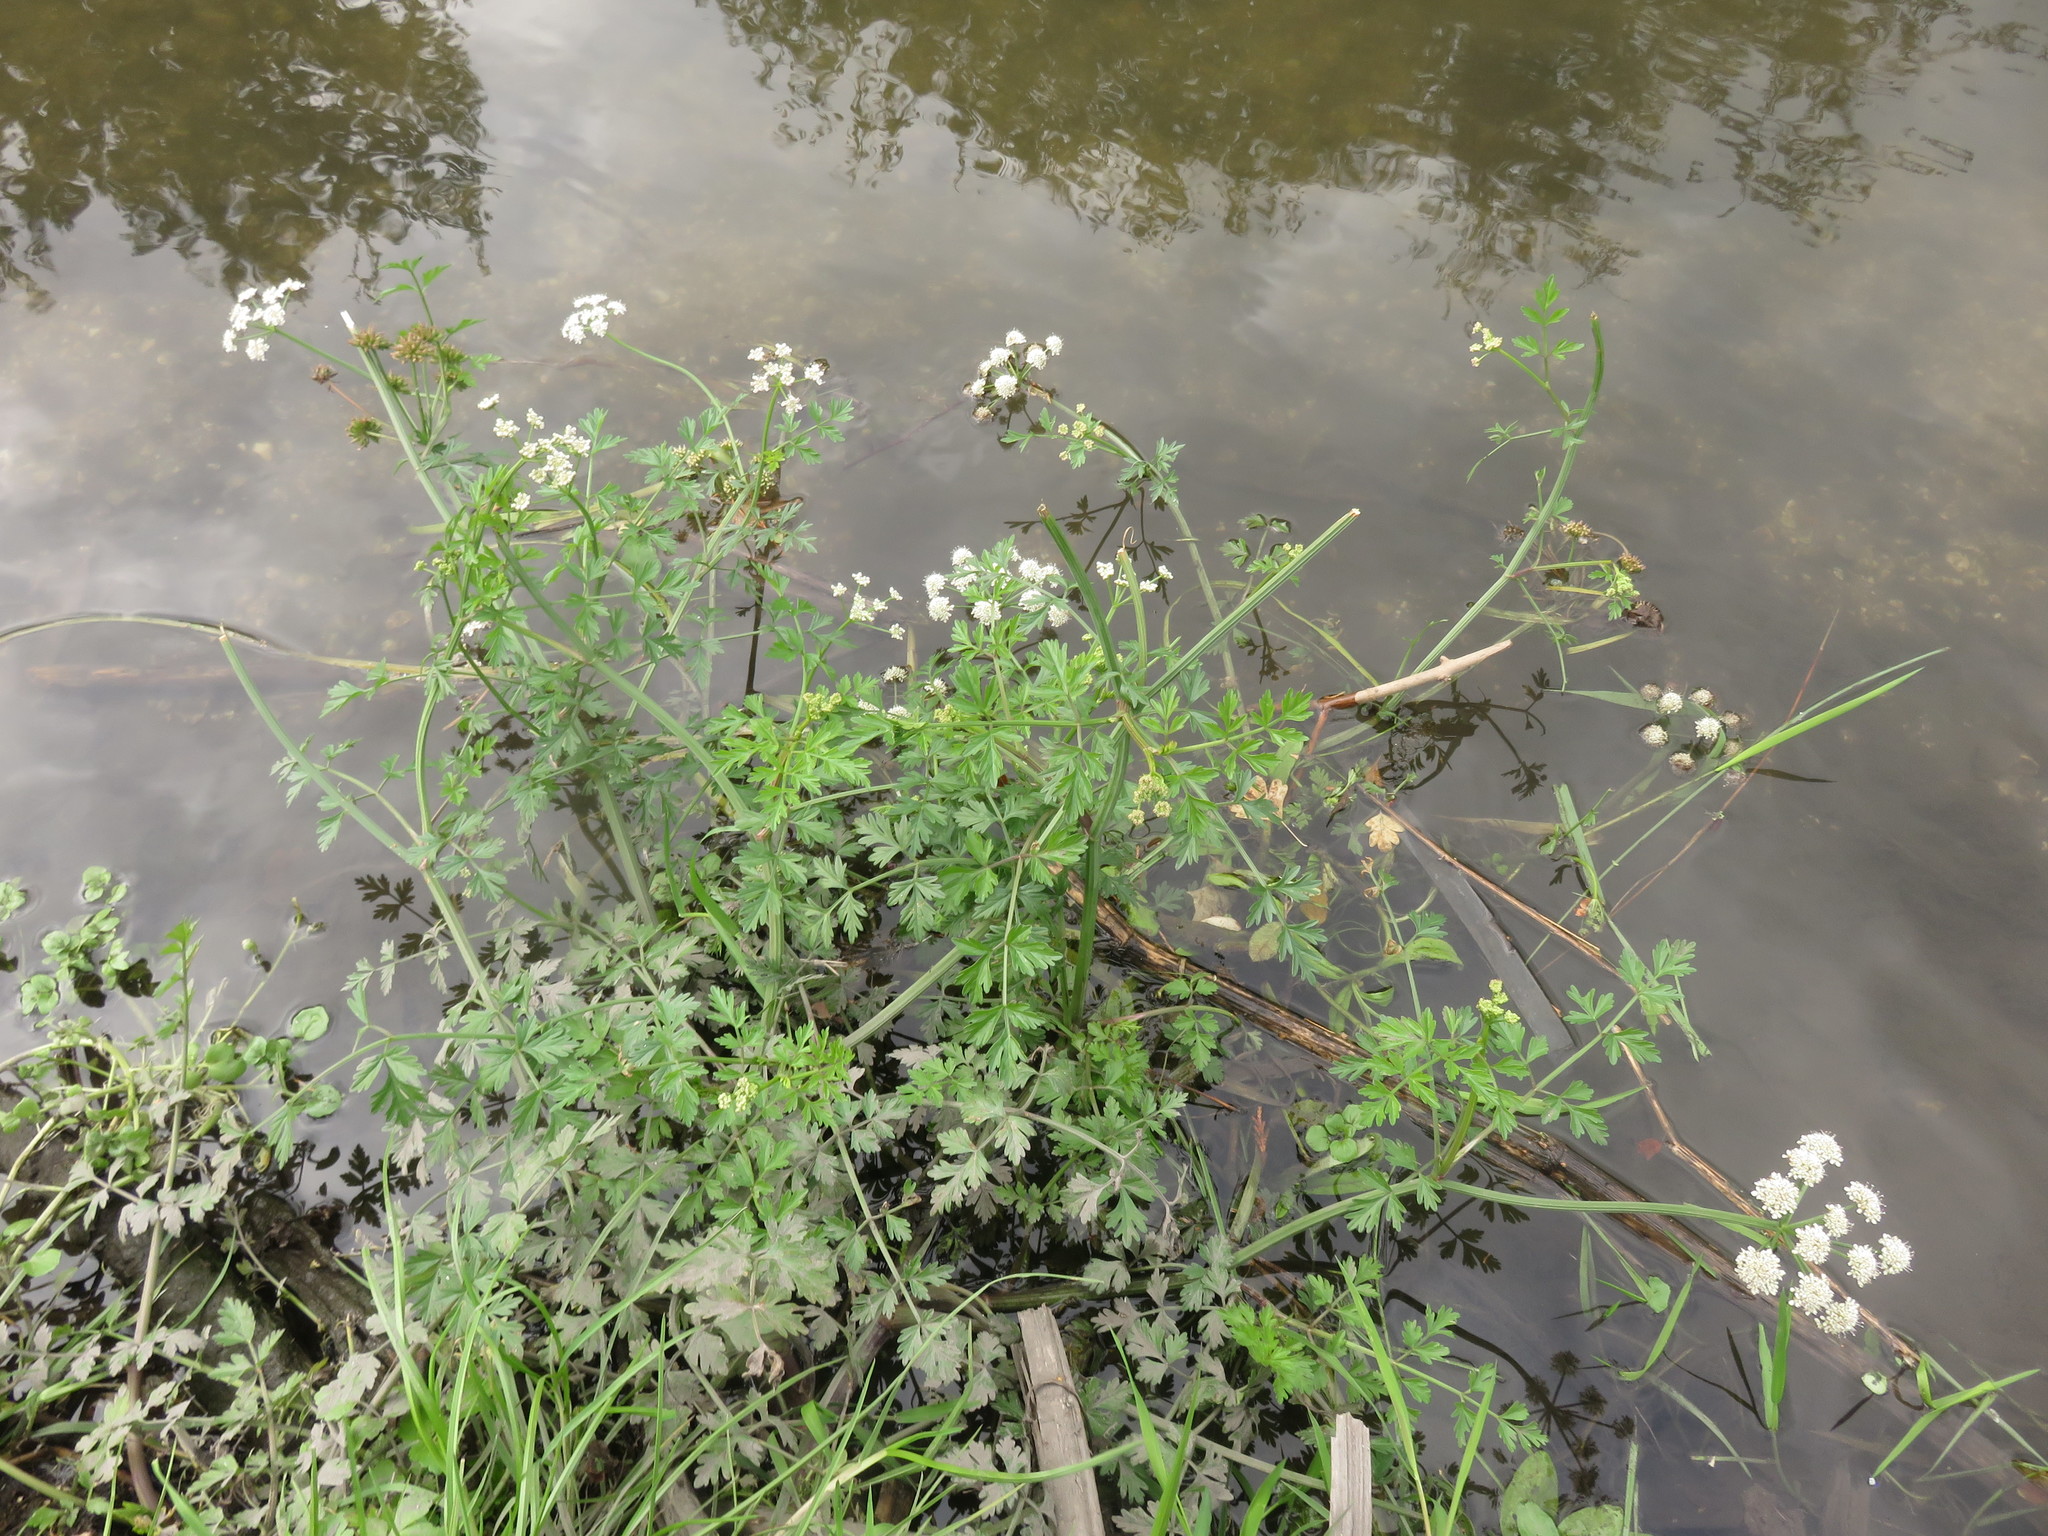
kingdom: Plantae
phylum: Tracheophyta
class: Magnoliopsida
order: Apiales
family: Apiaceae
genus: Oenanthe
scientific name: Oenanthe crocata
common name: Hemlock water-dropwort
